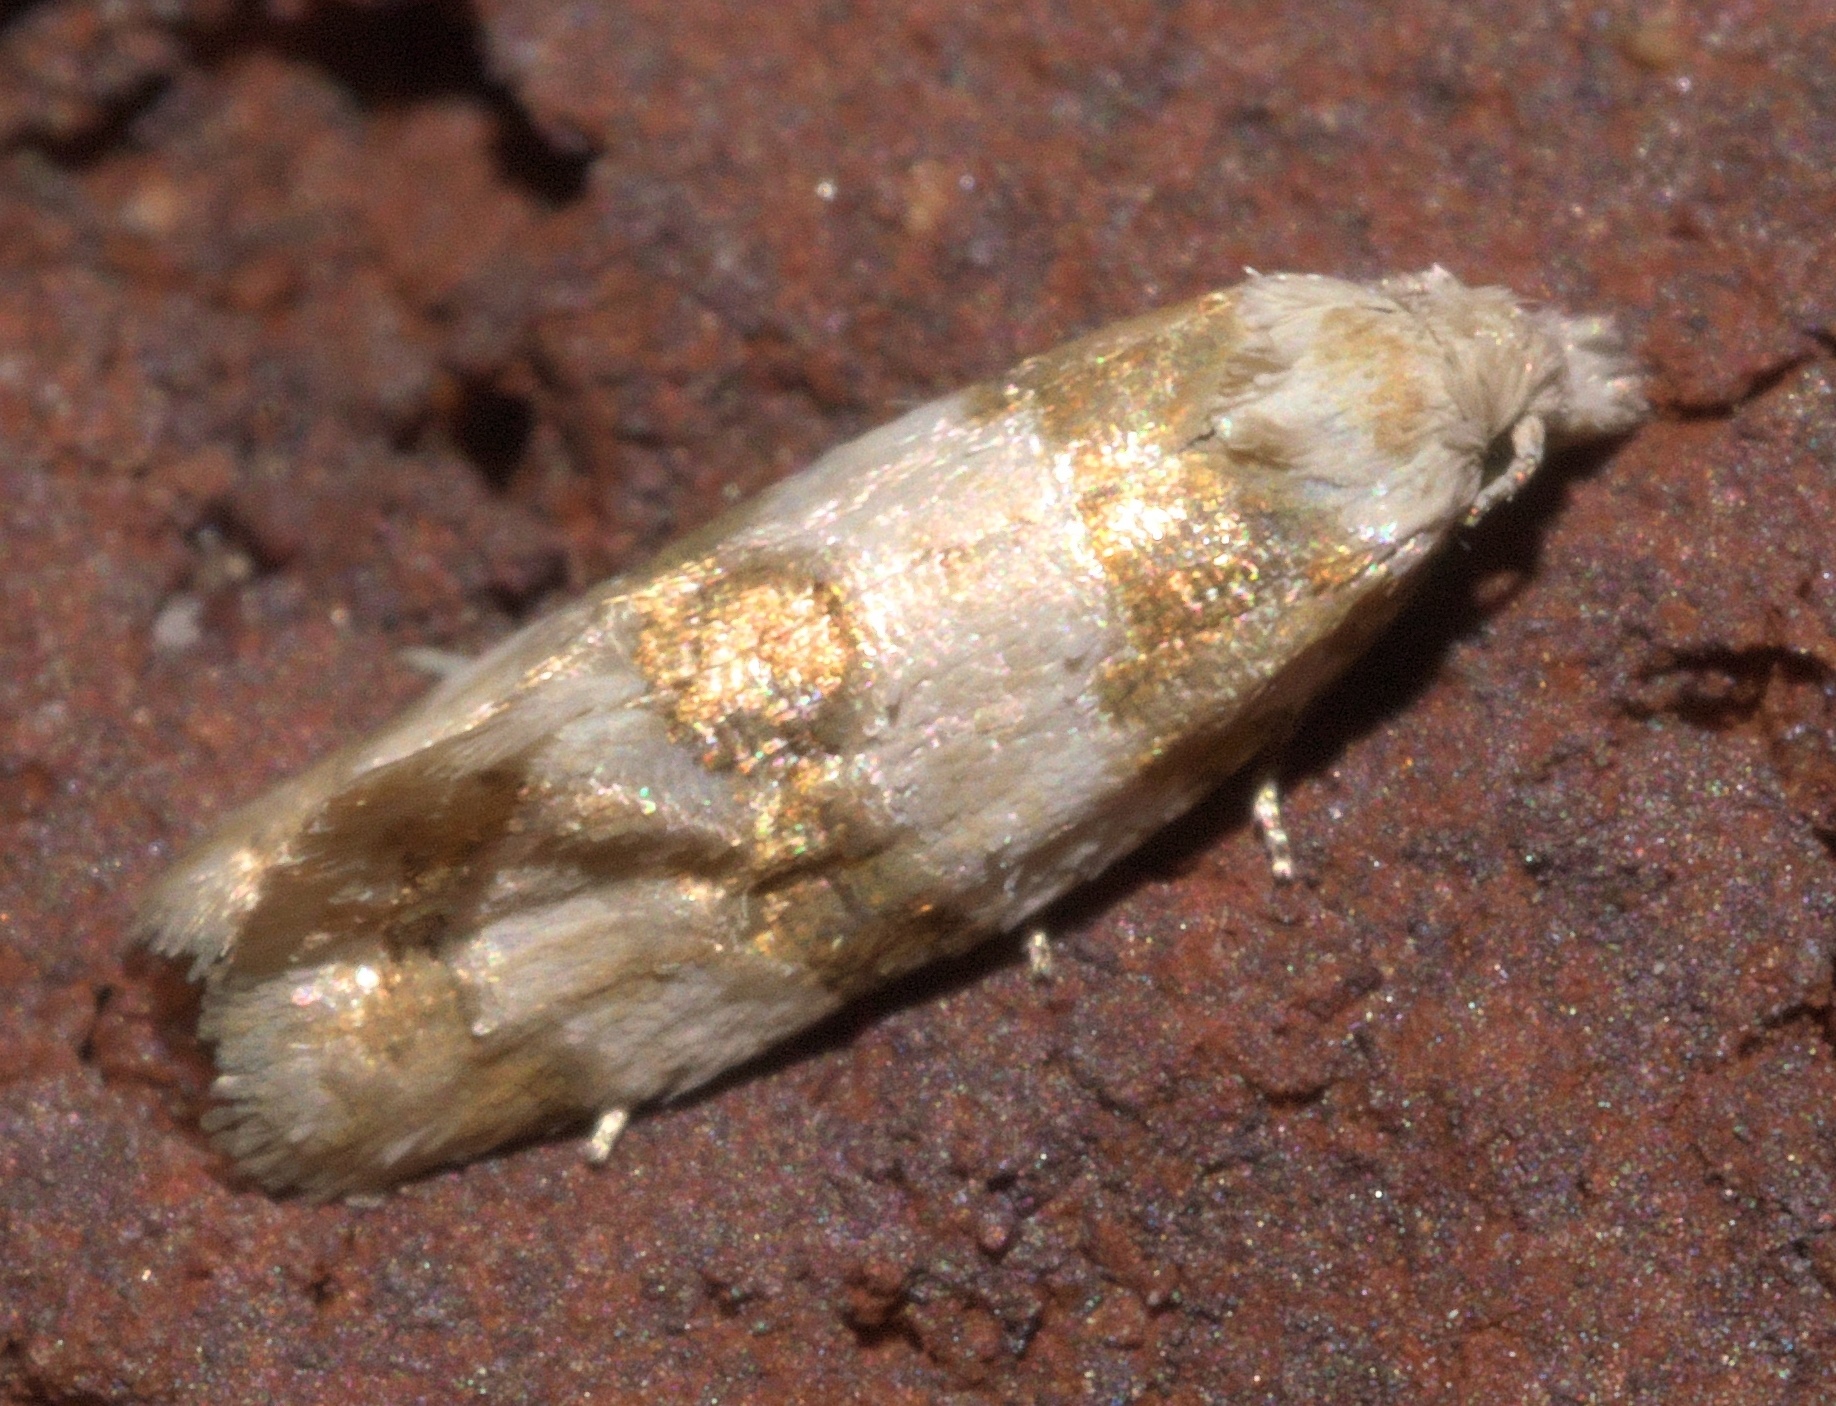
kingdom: Animalia
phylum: Arthropoda
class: Insecta
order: Lepidoptera
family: Tortricidae
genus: Aethes
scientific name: Aethes argentilimitana
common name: Silver-bordered aethes
